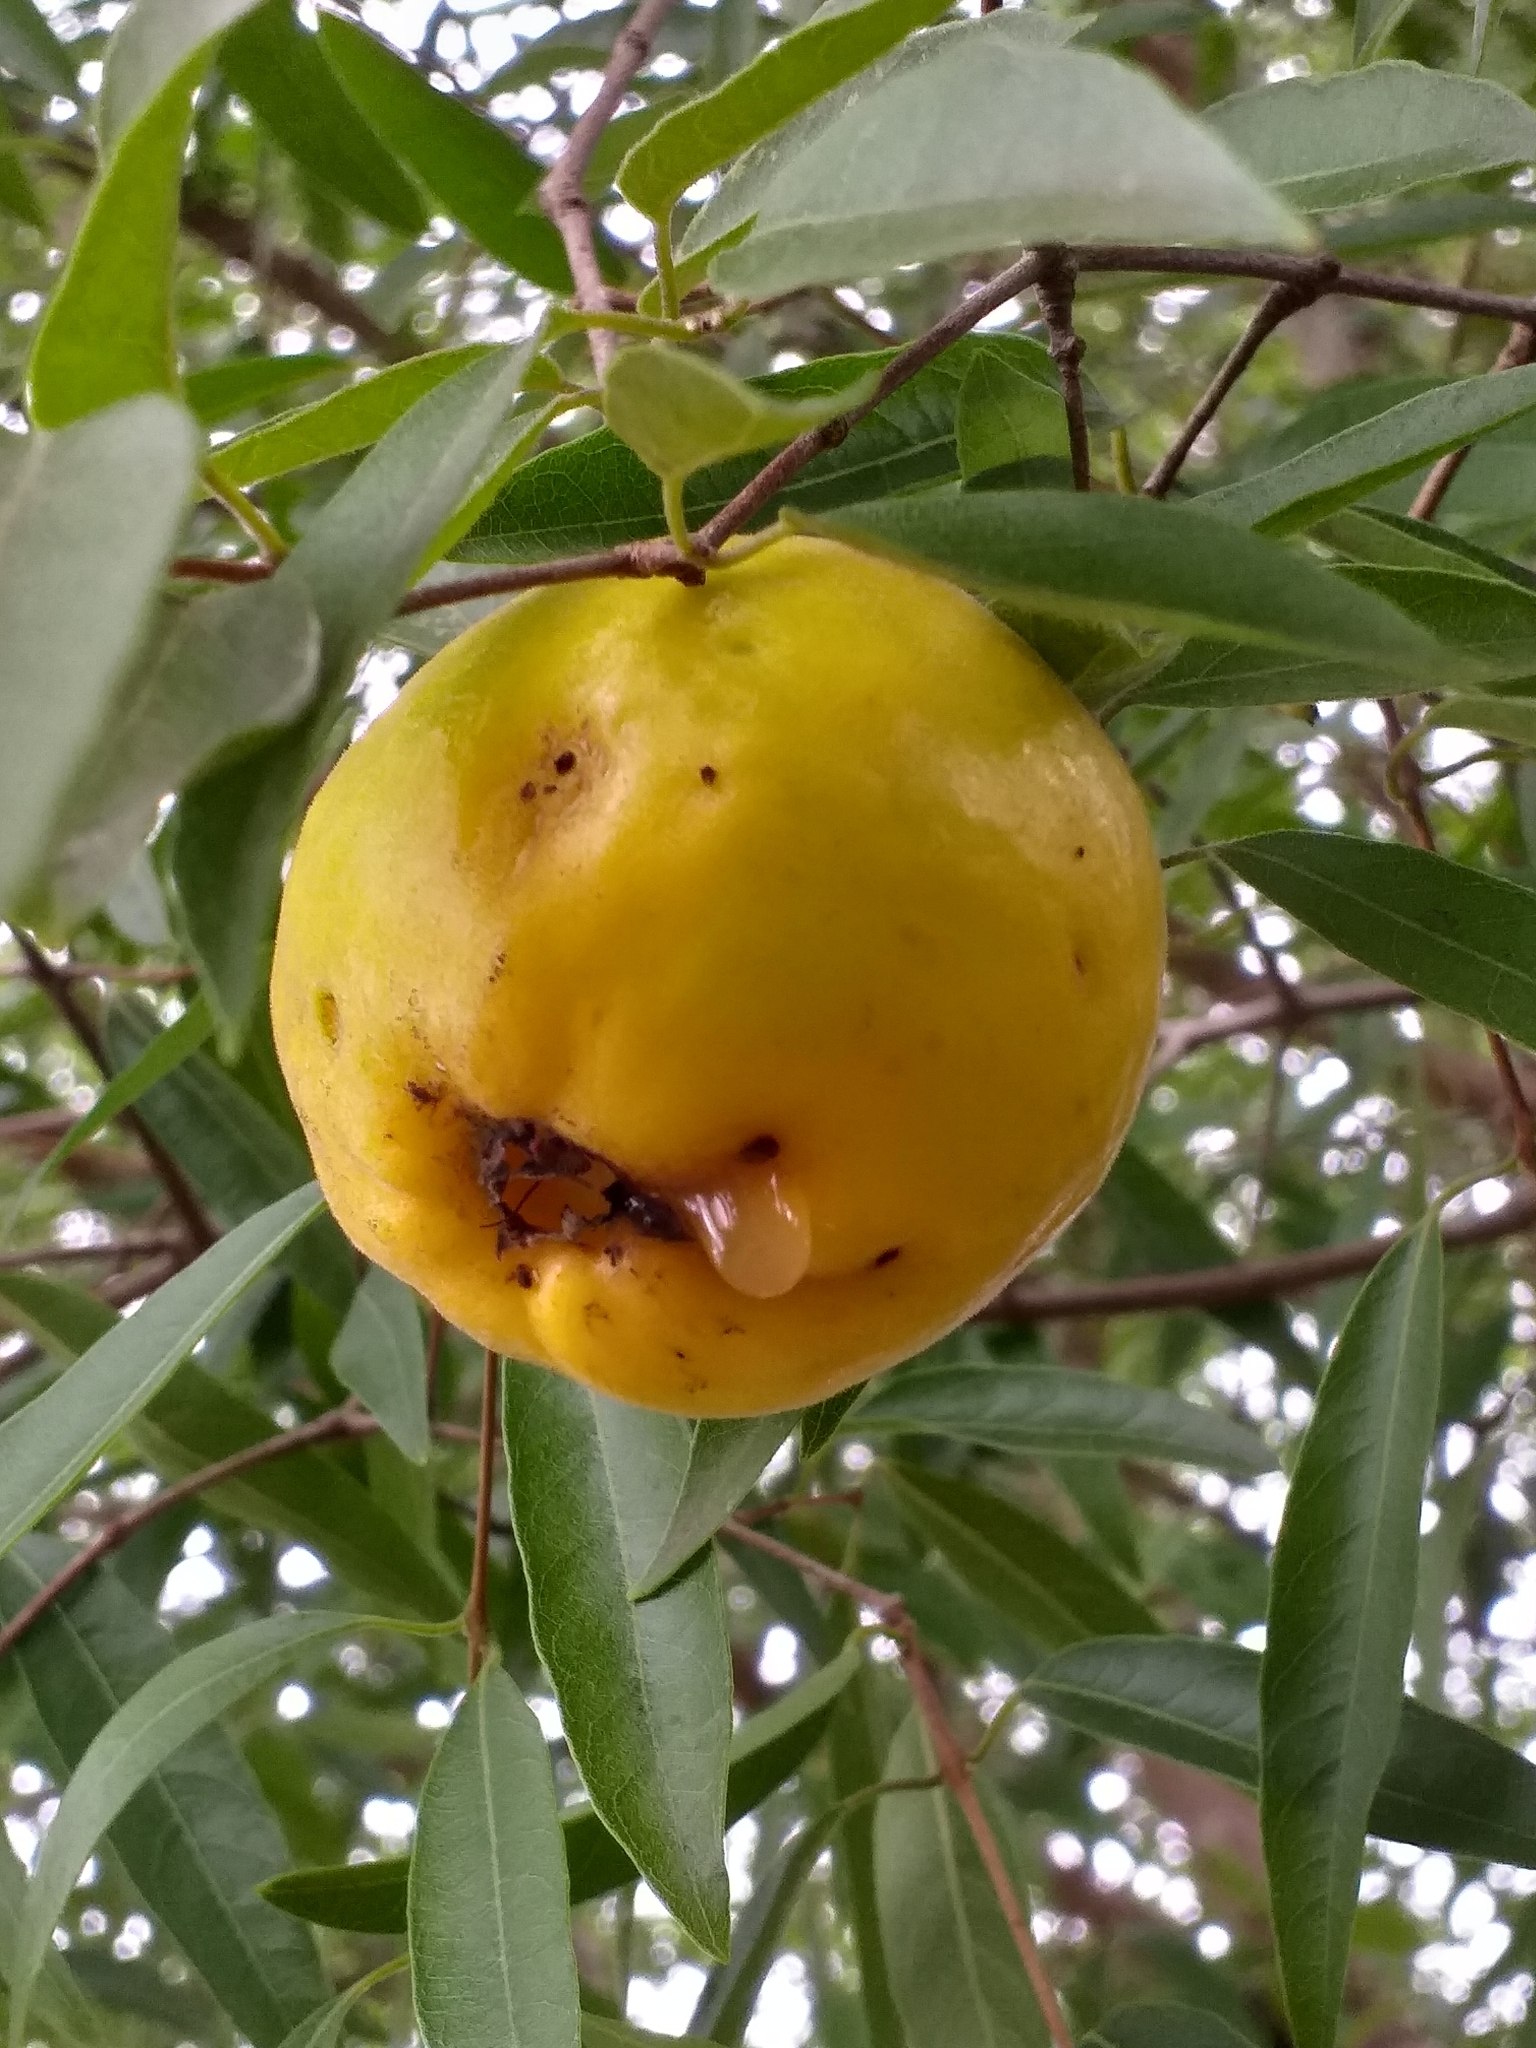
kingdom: Plantae
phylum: Tracheophyta
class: Magnoliopsida
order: Myrtales
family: Myrtaceae
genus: Eugenia
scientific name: Eugenia myrcianthes
